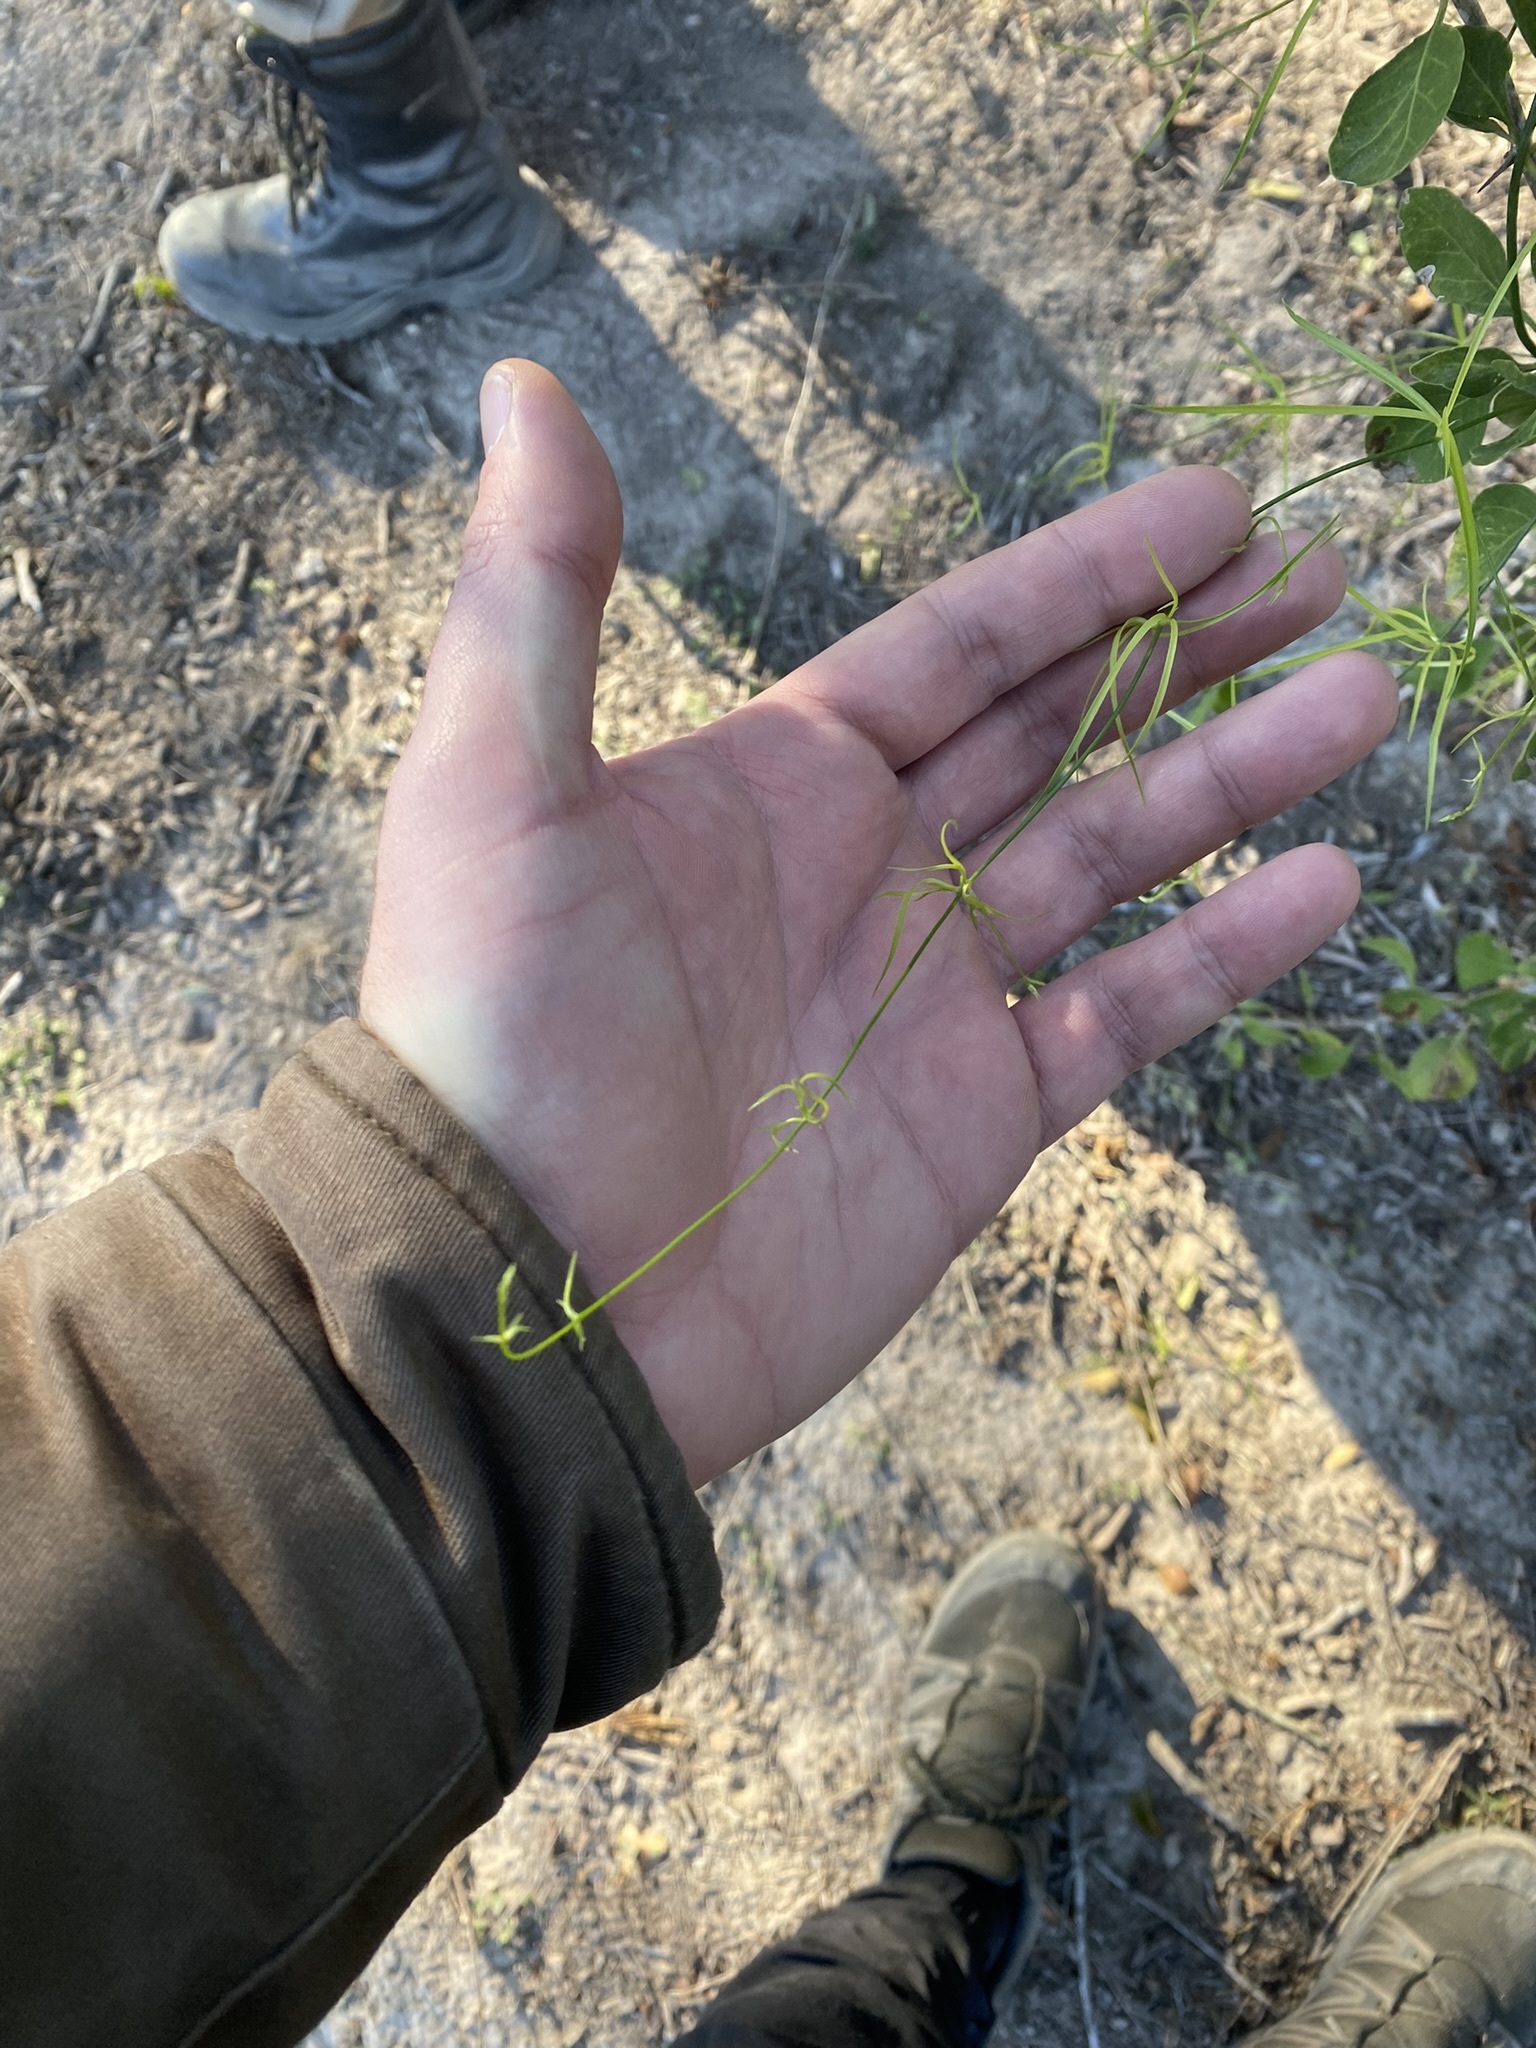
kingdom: Plantae
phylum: Tracheophyta
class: Liliopsida
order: Asparagales
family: Asparagaceae
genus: Herreria
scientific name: Herreria bonplandii
